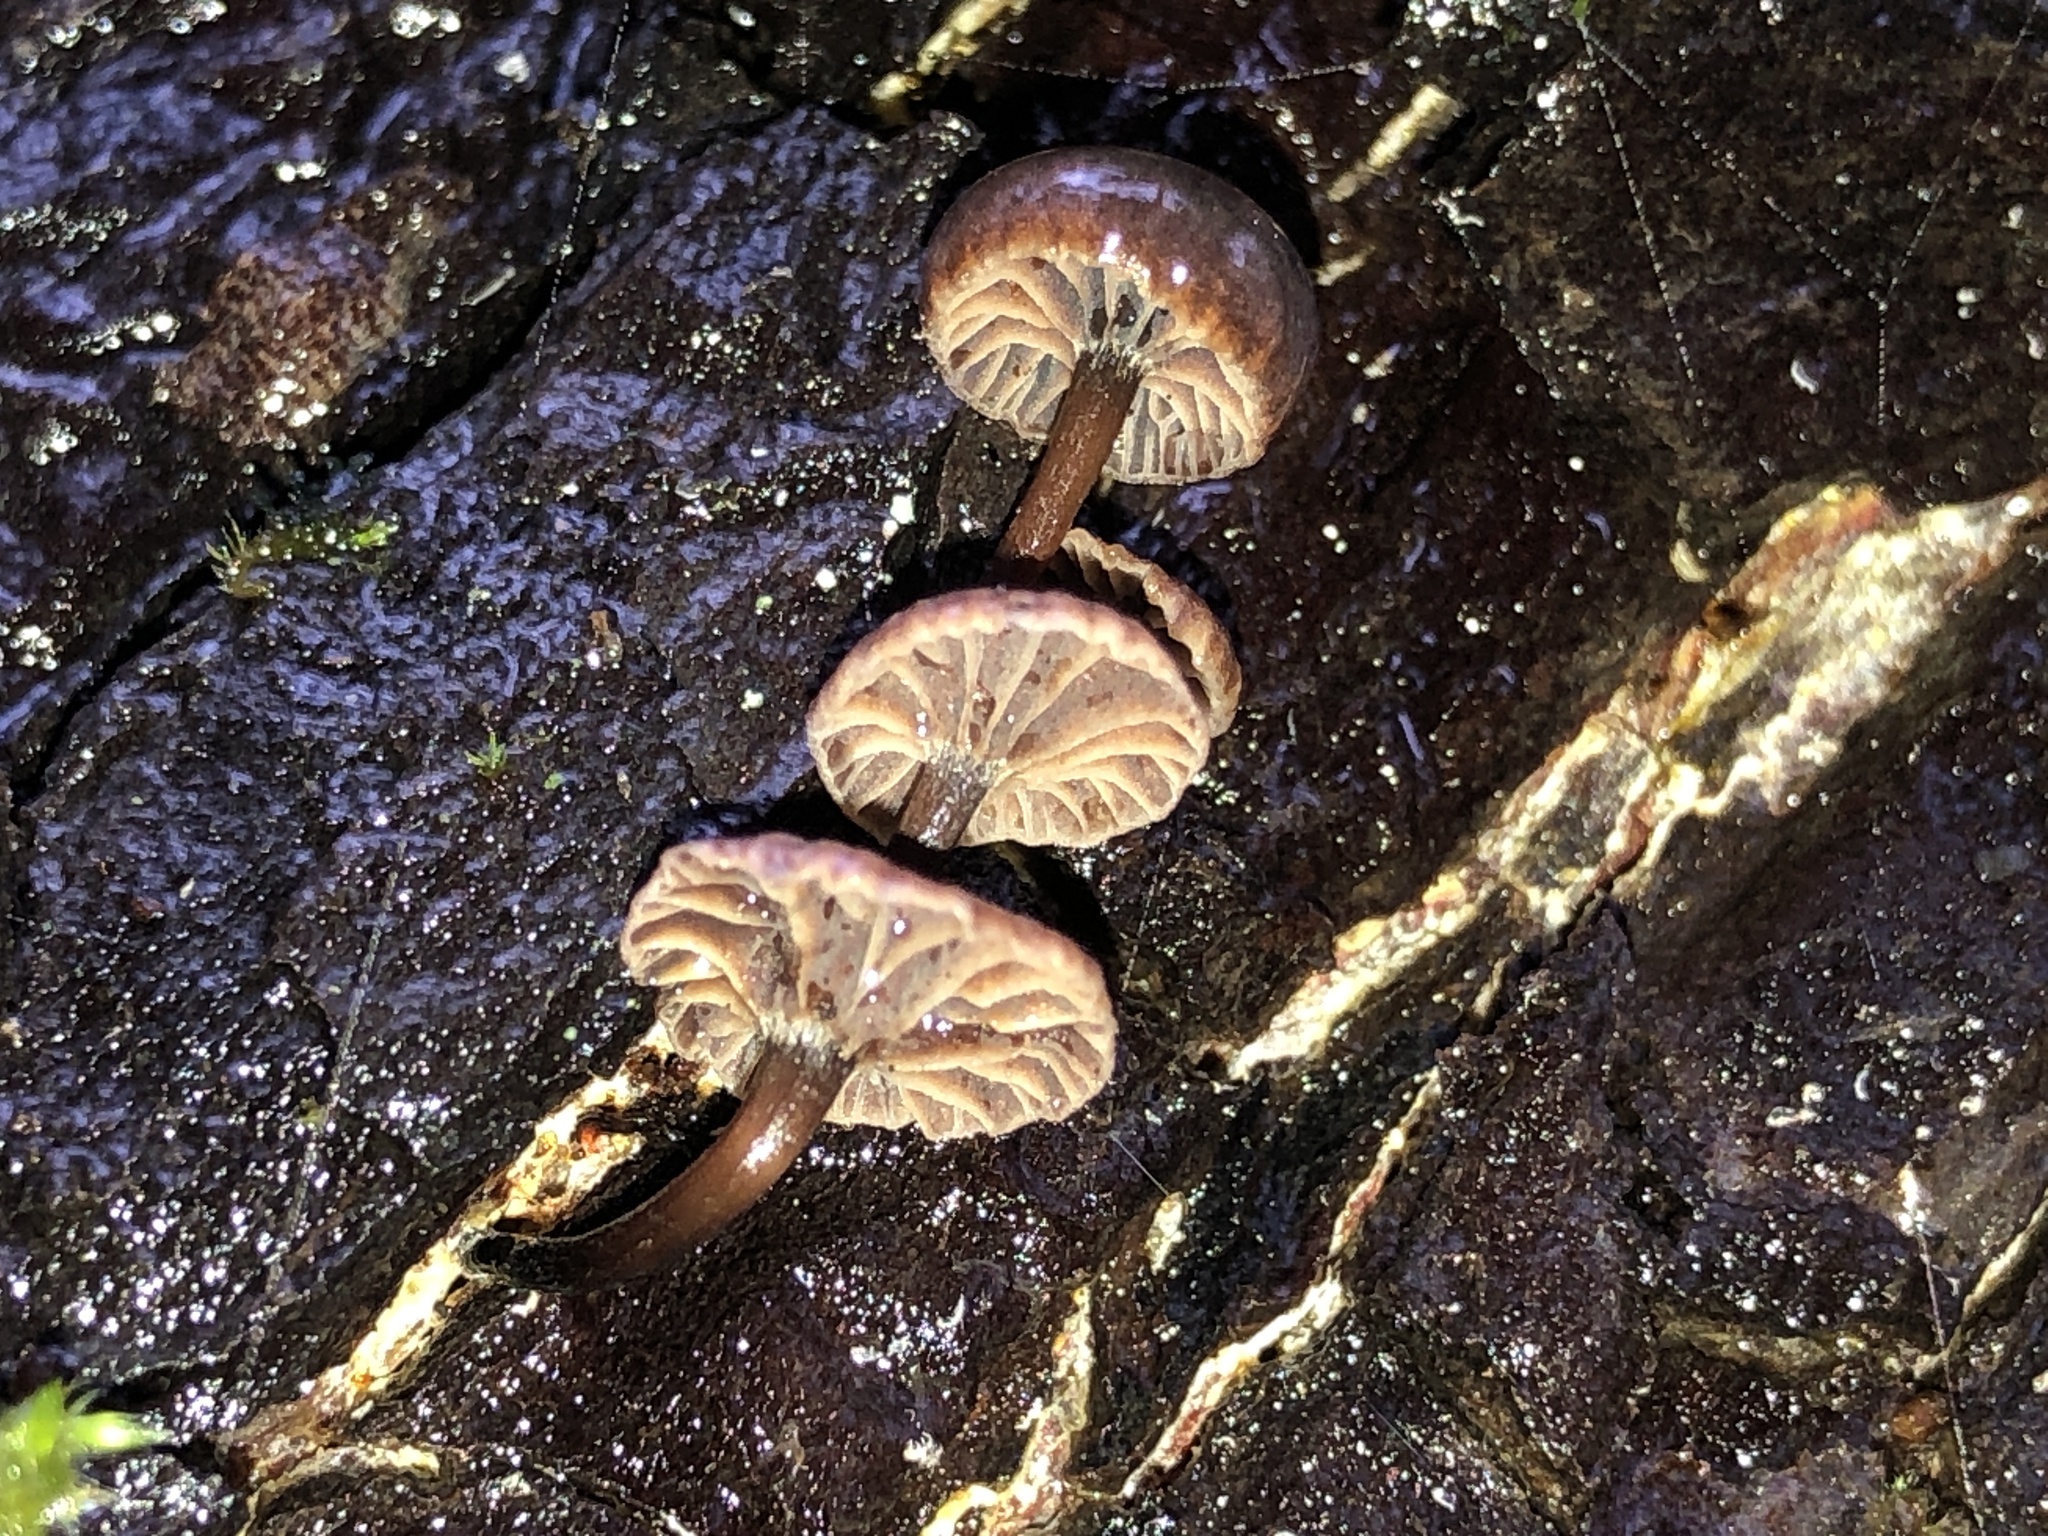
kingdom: Fungi
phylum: Basidiomycota
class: Agaricomycetes
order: Agaricales
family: Omphalotaceae
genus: Micromphale
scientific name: Micromphale arbuticola
